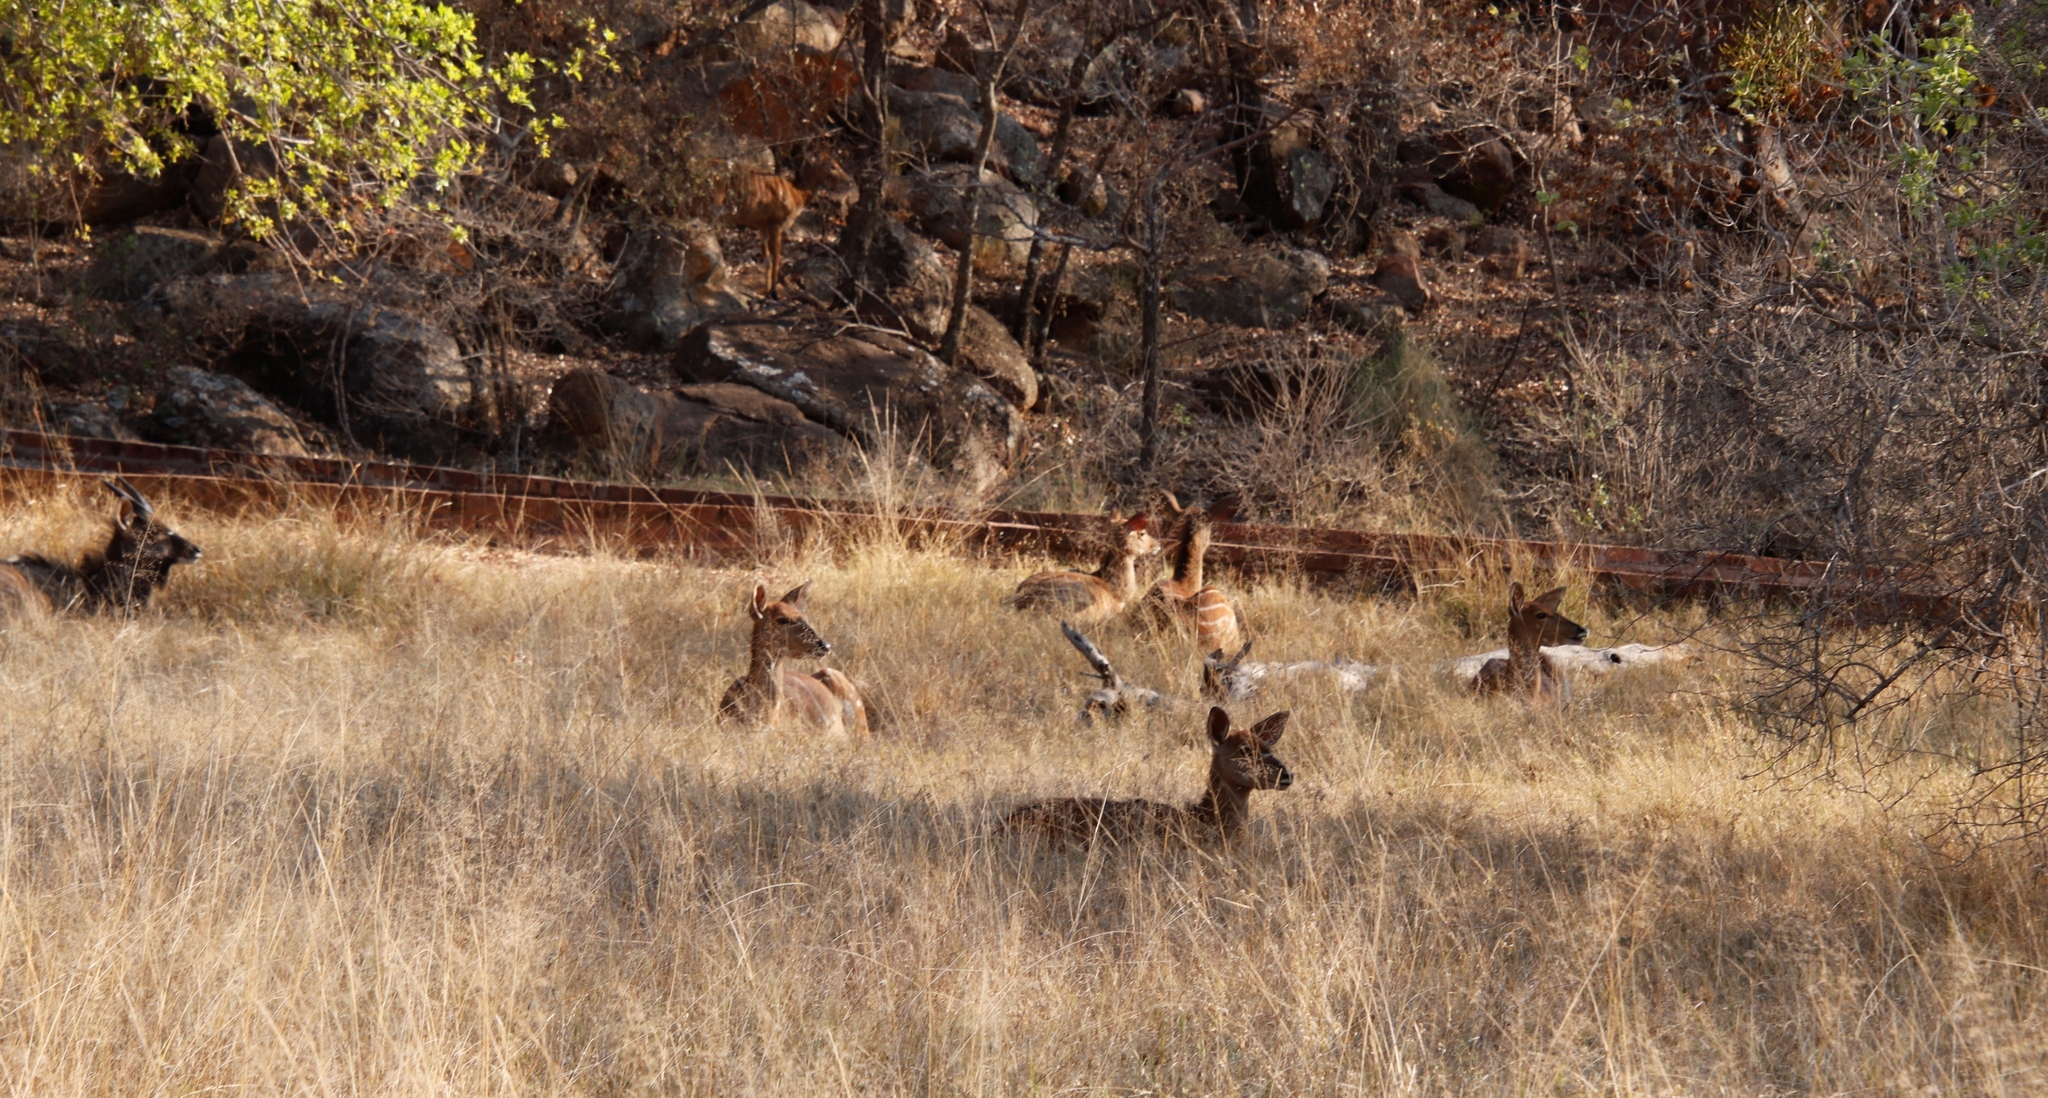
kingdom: Animalia
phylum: Chordata
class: Mammalia
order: Artiodactyla
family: Bovidae
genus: Tragelaphus
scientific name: Tragelaphus angasii
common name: Nyala
